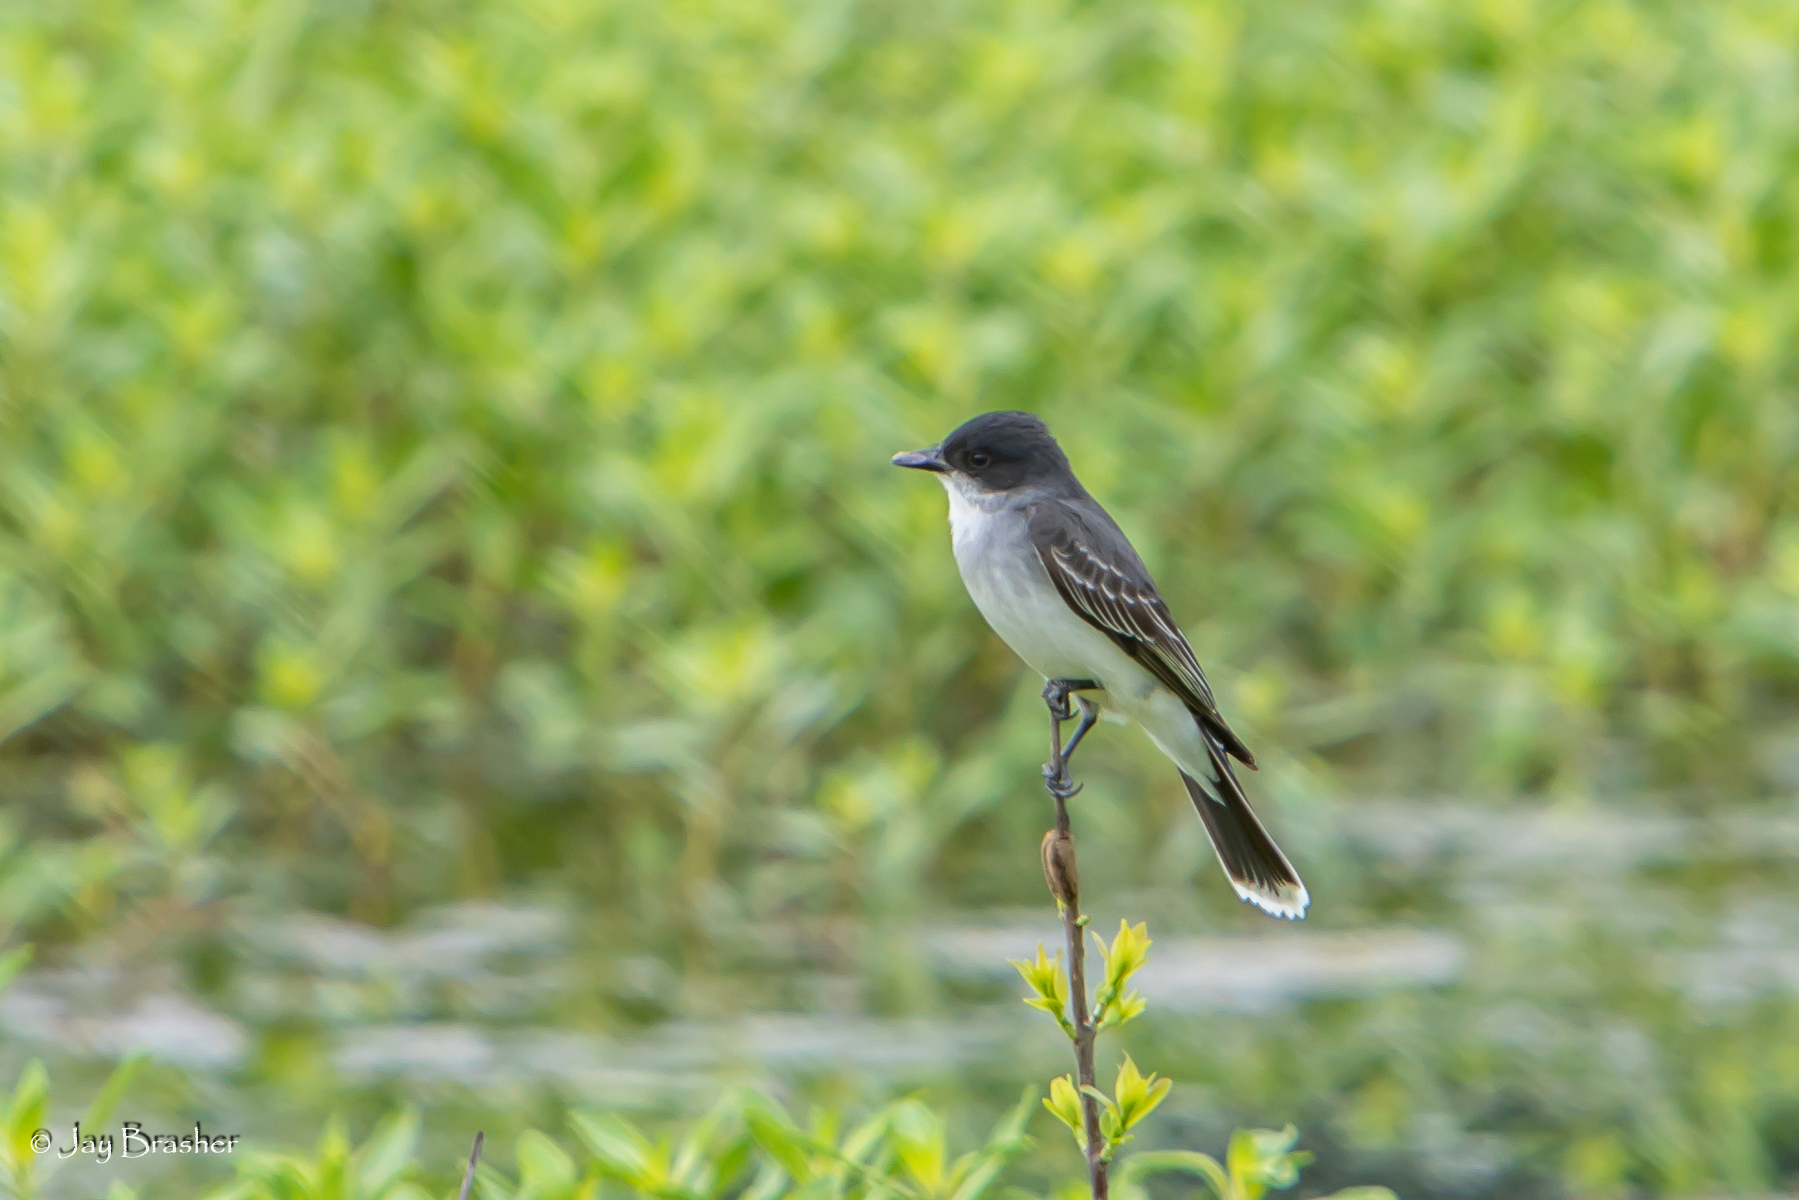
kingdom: Animalia
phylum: Chordata
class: Aves
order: Passeriformes
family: Tyrannidae
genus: Tyrannus
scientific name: Tyrannus tyrannus
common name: Eastern kingbird
